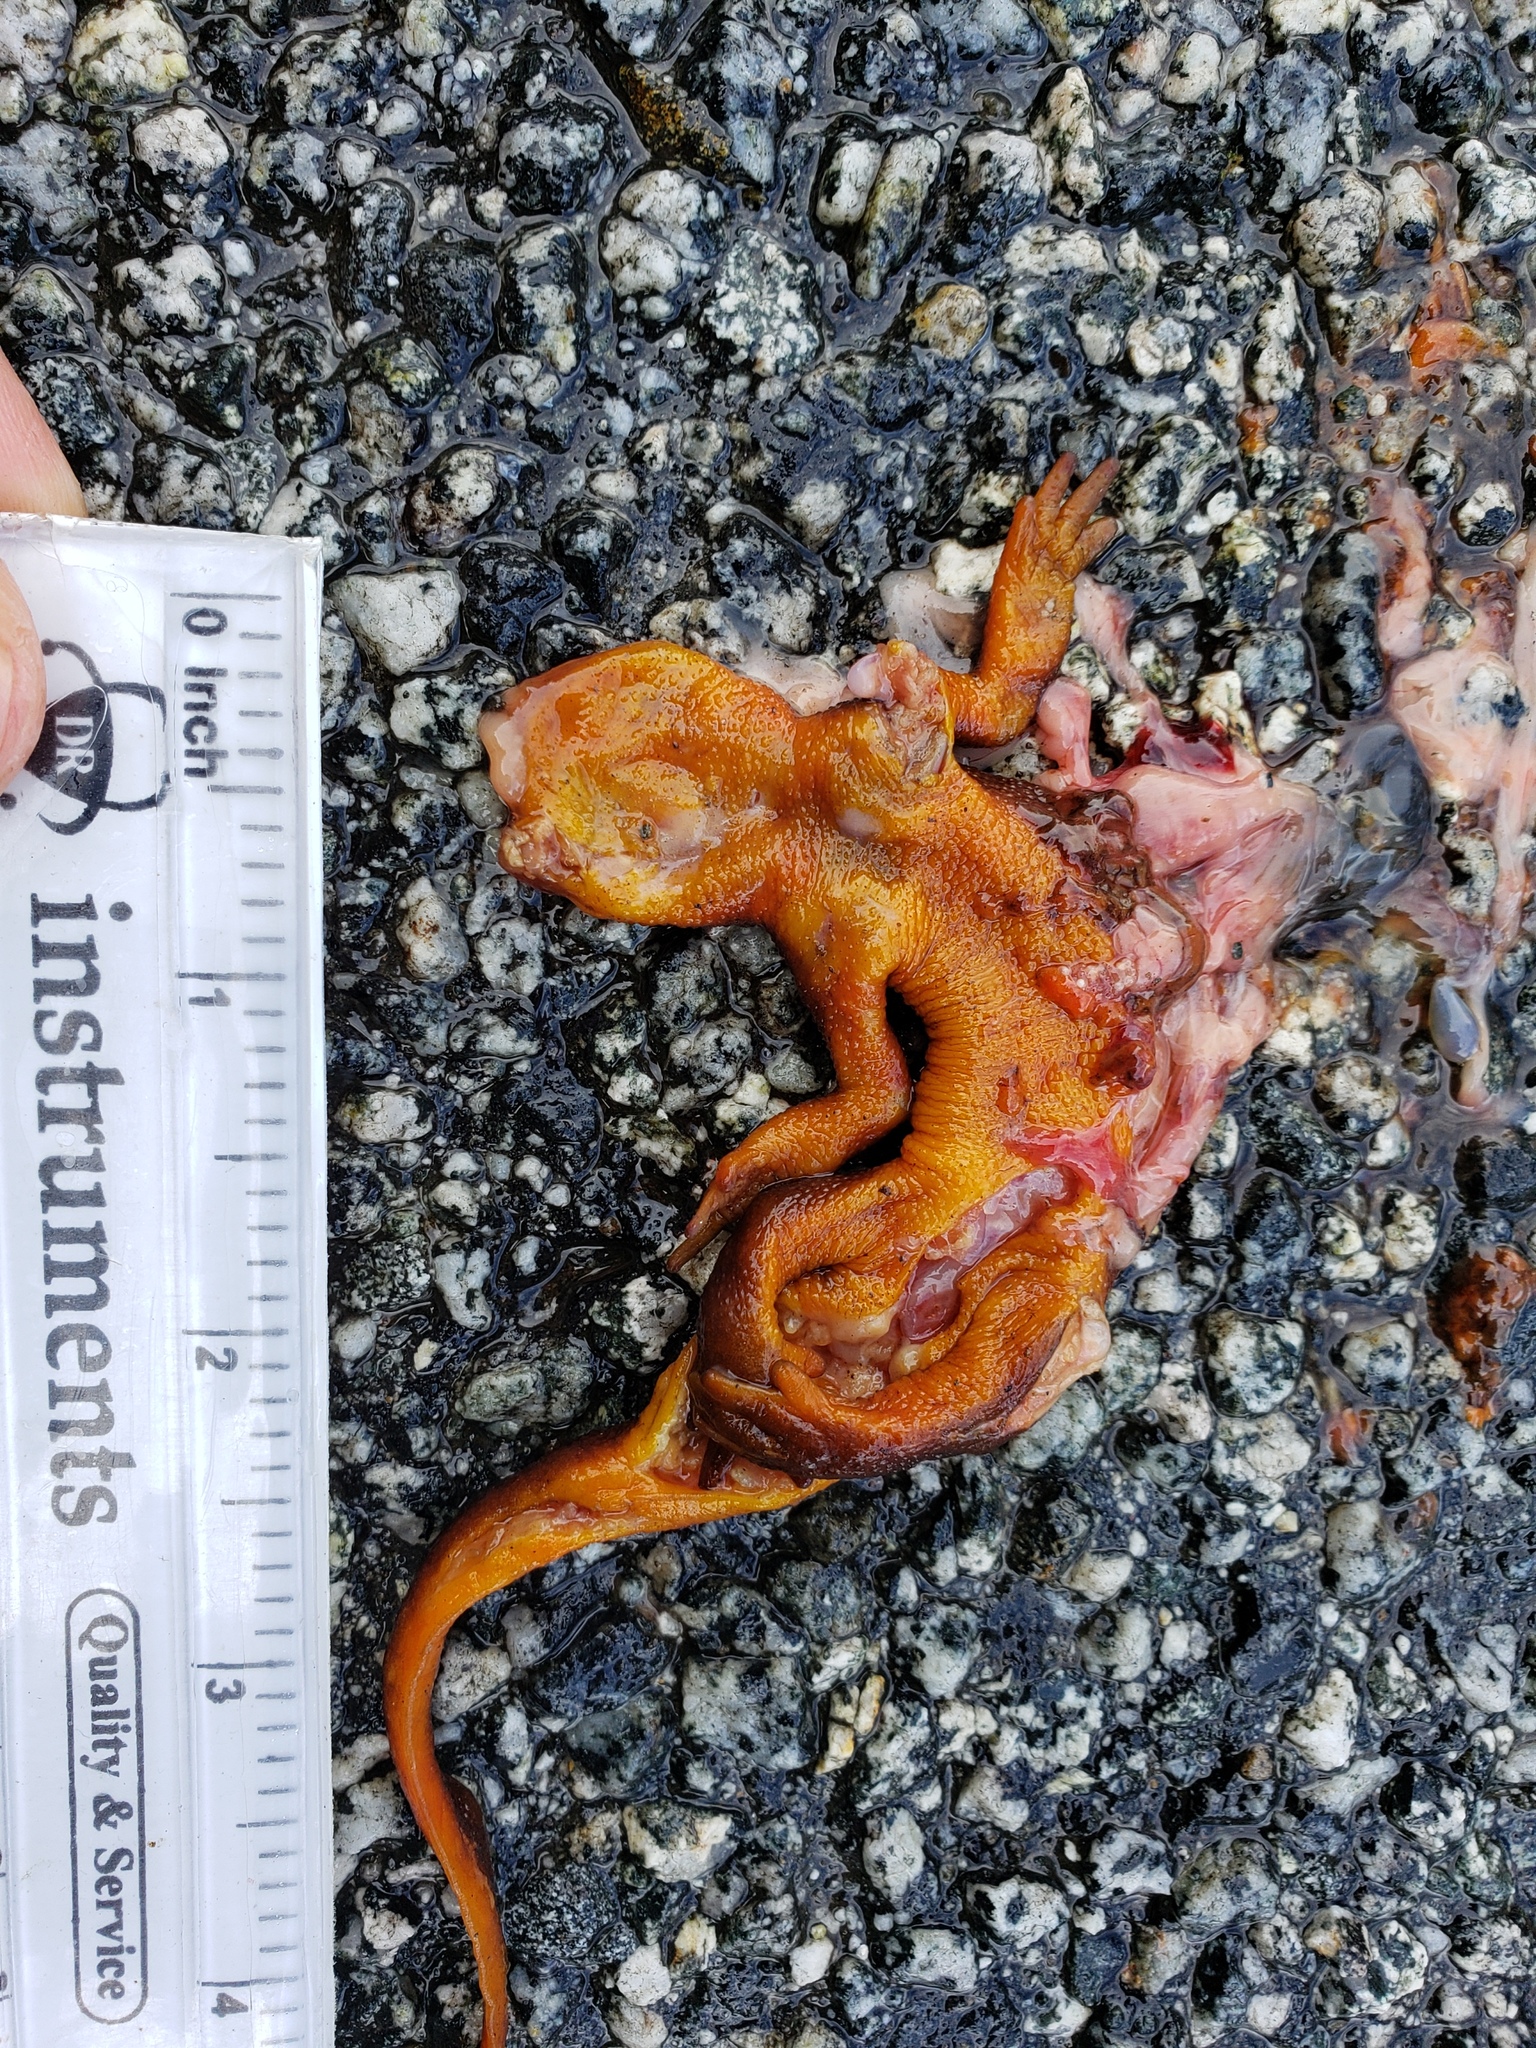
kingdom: Animalia
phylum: Chordata
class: Amphibia
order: Caudata
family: Salamandridae
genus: Taricha
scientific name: Taricha
